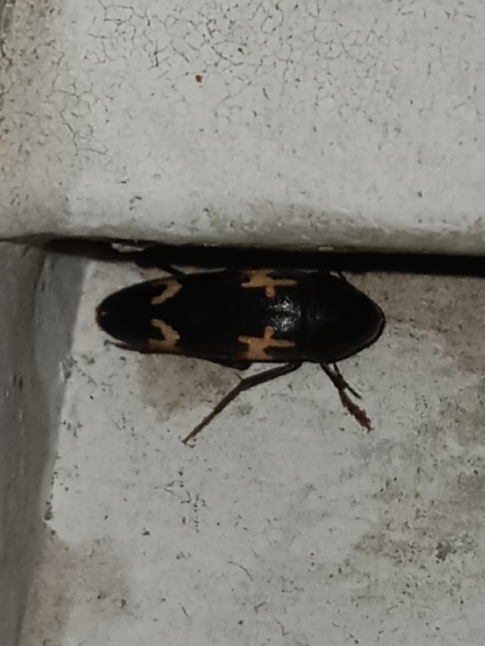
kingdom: Animalia
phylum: Arthropoda
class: Insecta
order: Coleoptera
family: Melandryidae
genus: Dircaea
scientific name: Dircaea liturata
